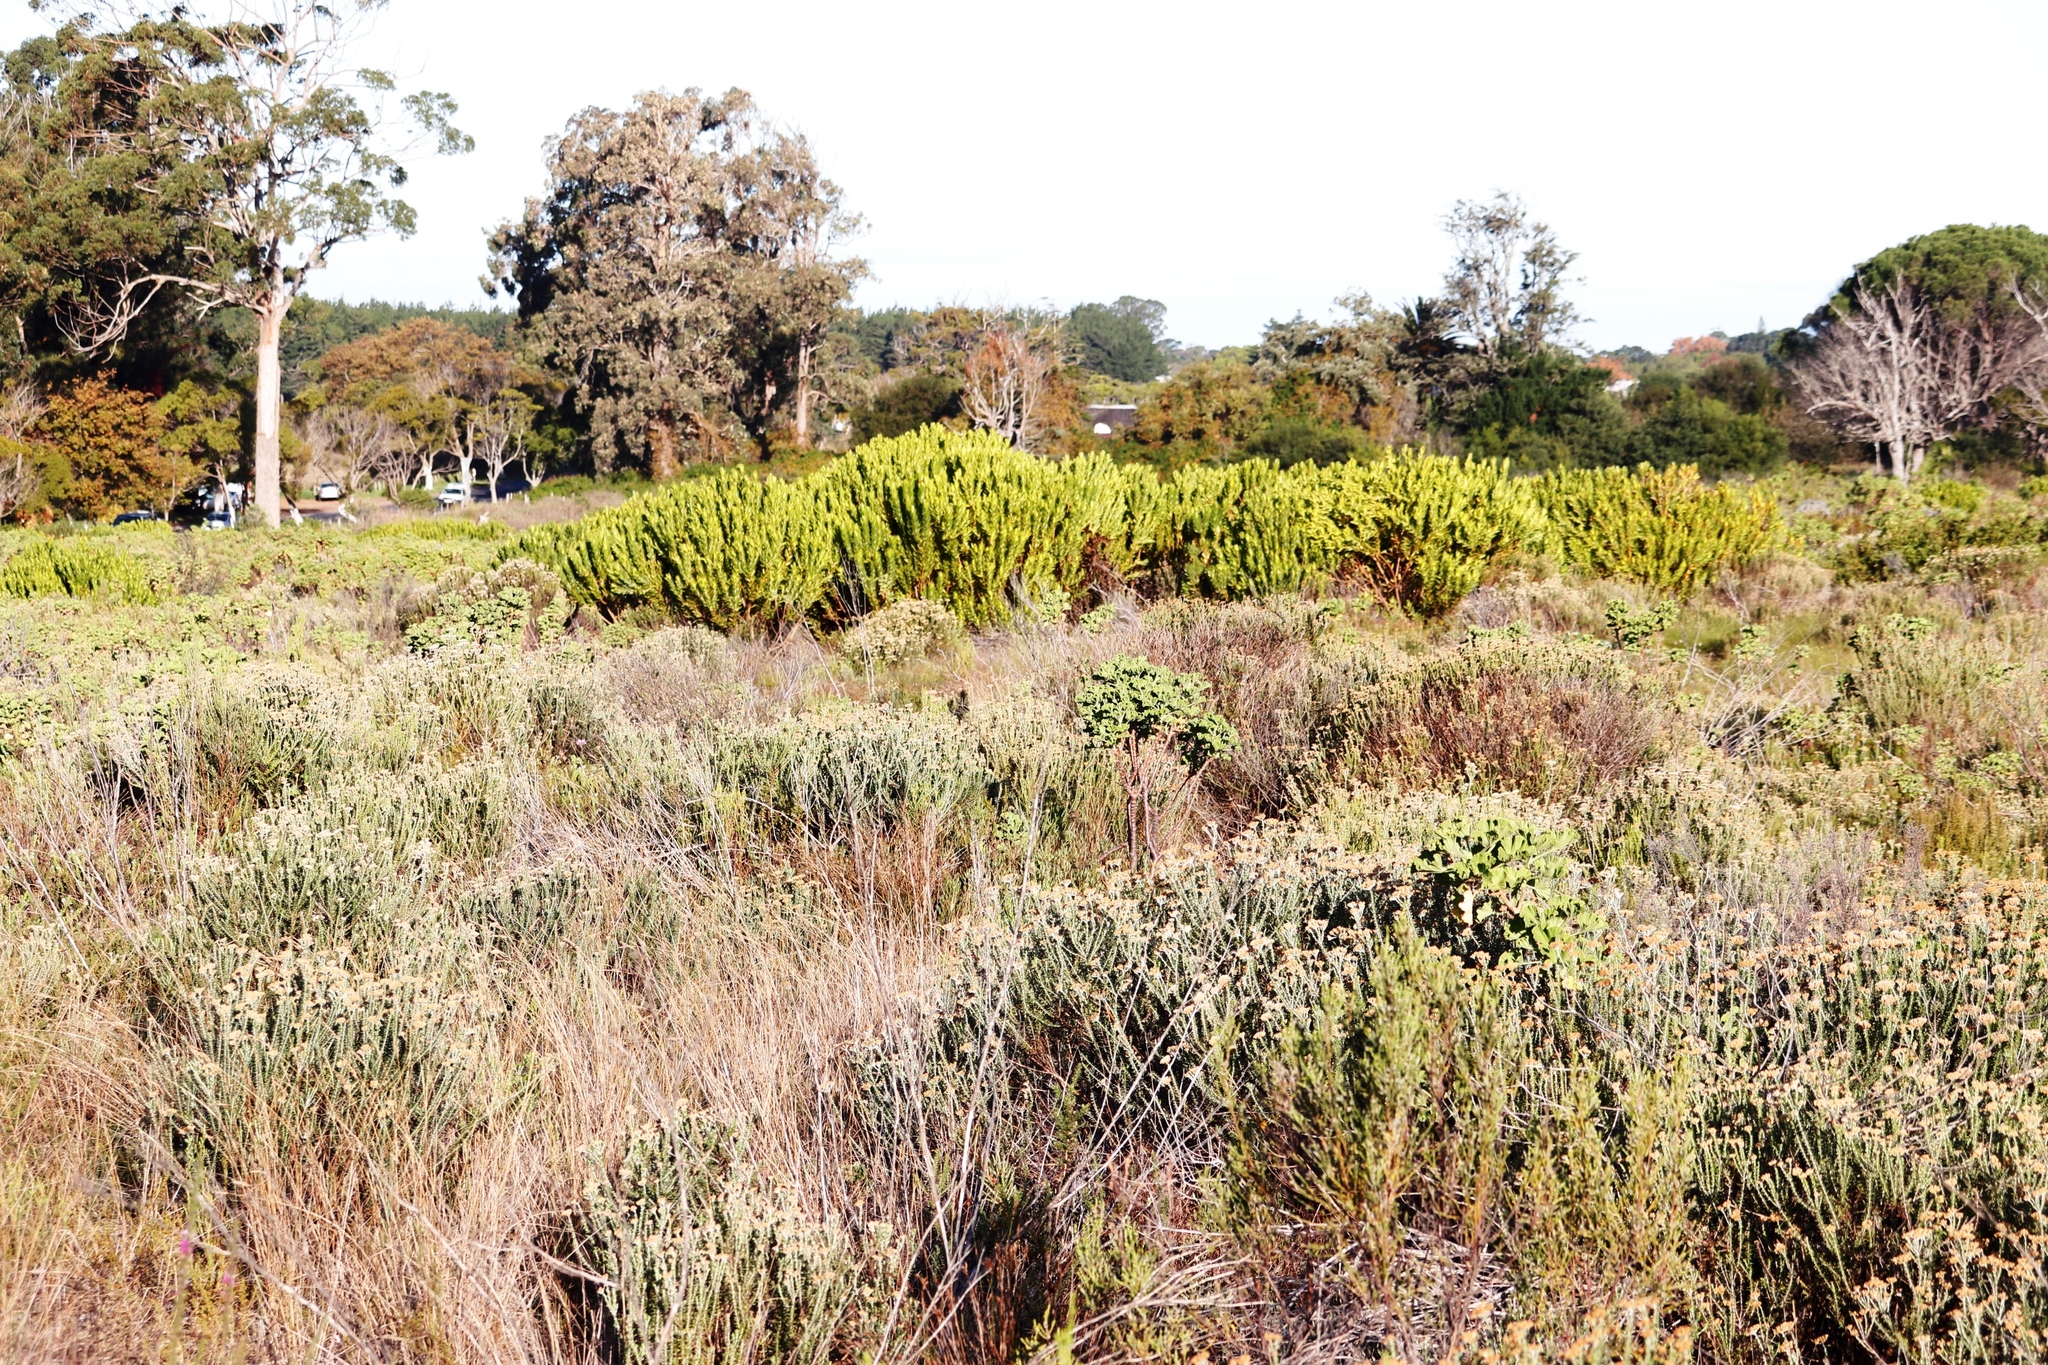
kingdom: Plantae
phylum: Tracheophyta
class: Magnoliopsida
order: Proteales
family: Proteaceae
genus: Leucadendron
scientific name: Leucadendron laureolum
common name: Golden sunshinebush
